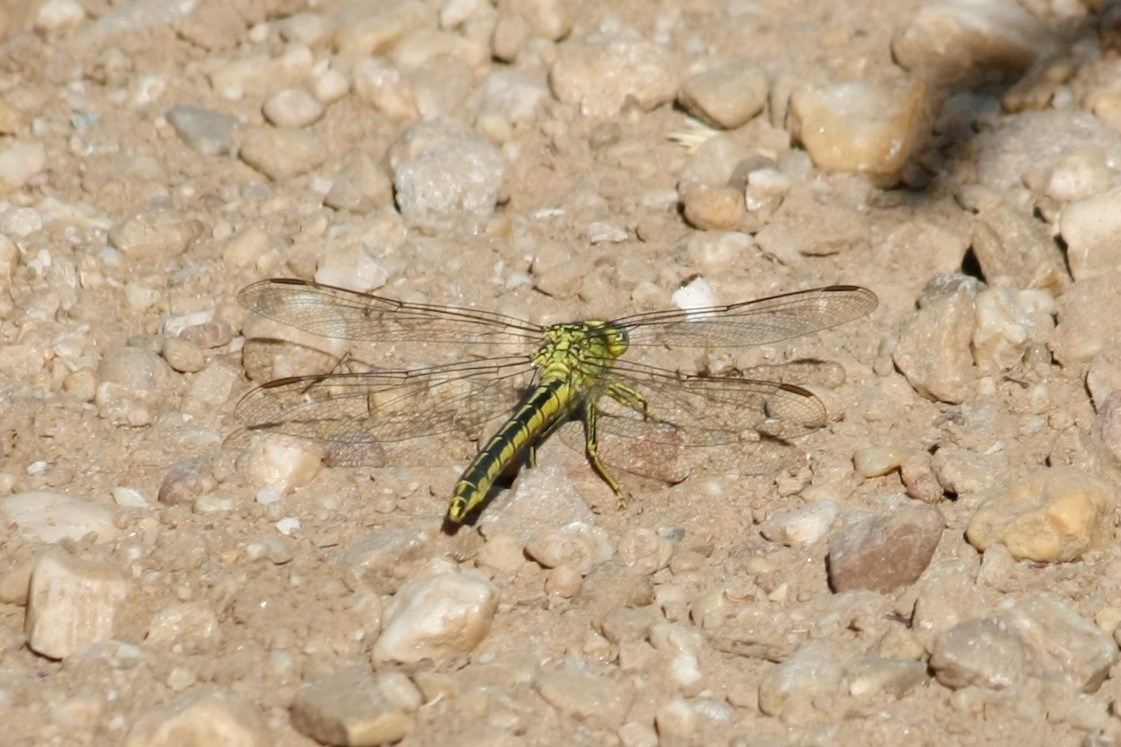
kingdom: Animalia
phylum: Arthropoda
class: Insecta
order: Odonata
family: Gomphidae
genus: Gomphus
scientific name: Gomphus pulchellus
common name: Western clubtail
